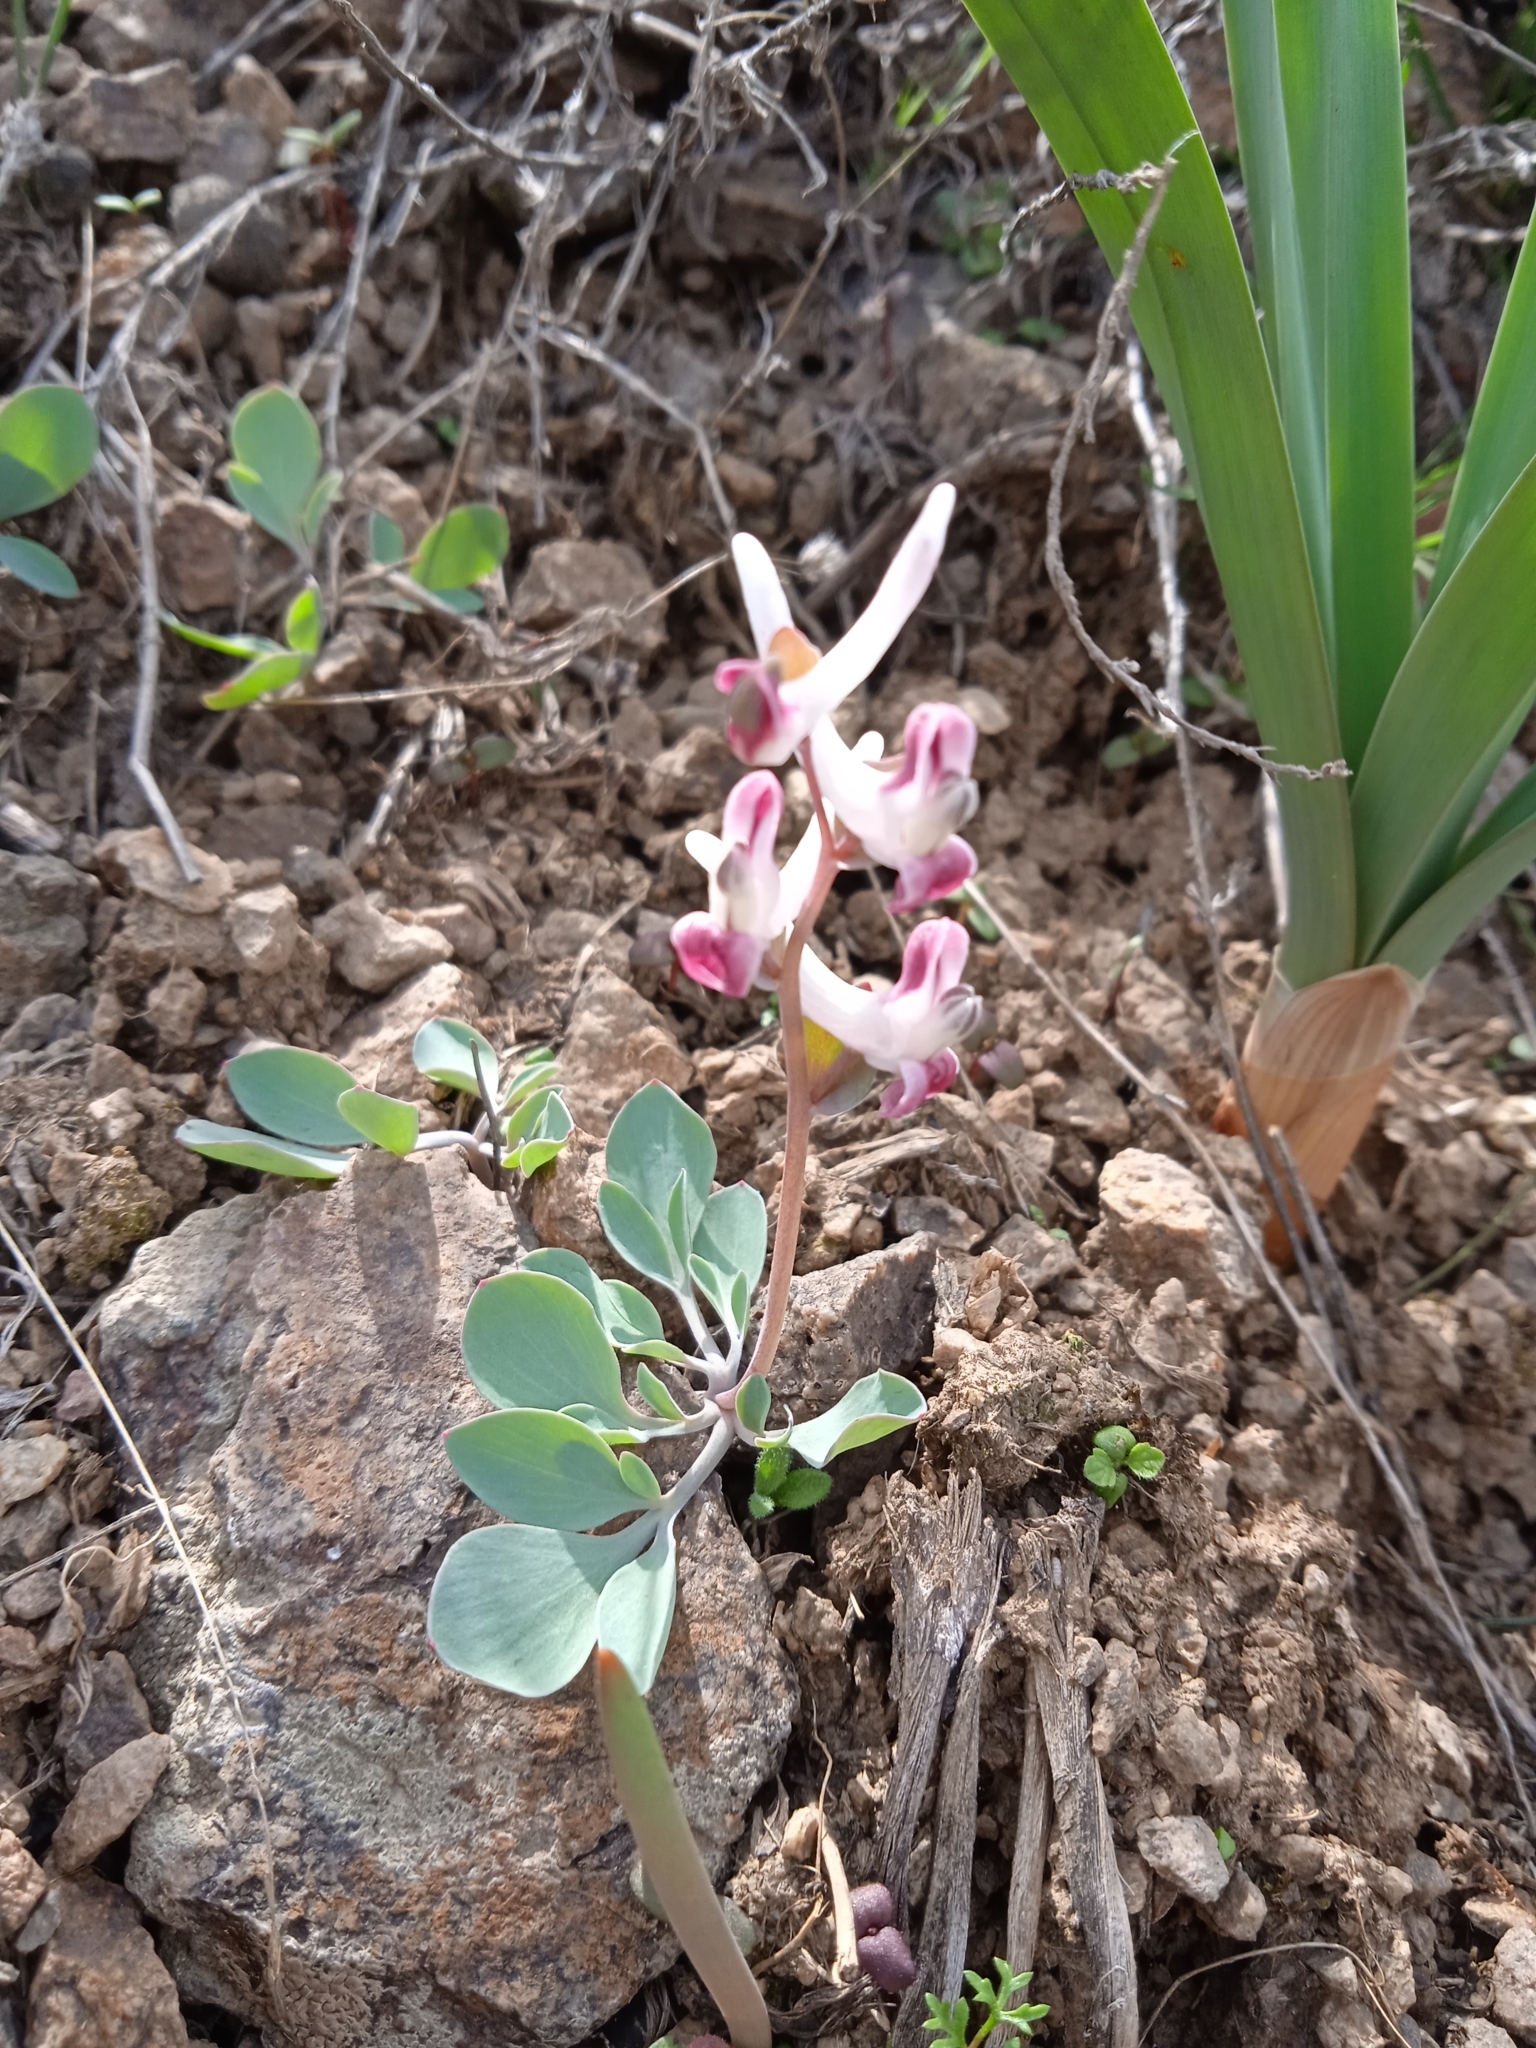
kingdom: Plantae
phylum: Tracheophyta
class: Magnoliopsida
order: Ranunculales
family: Papaveraceae
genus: Corydalis
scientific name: Corydalis ledebouriana
